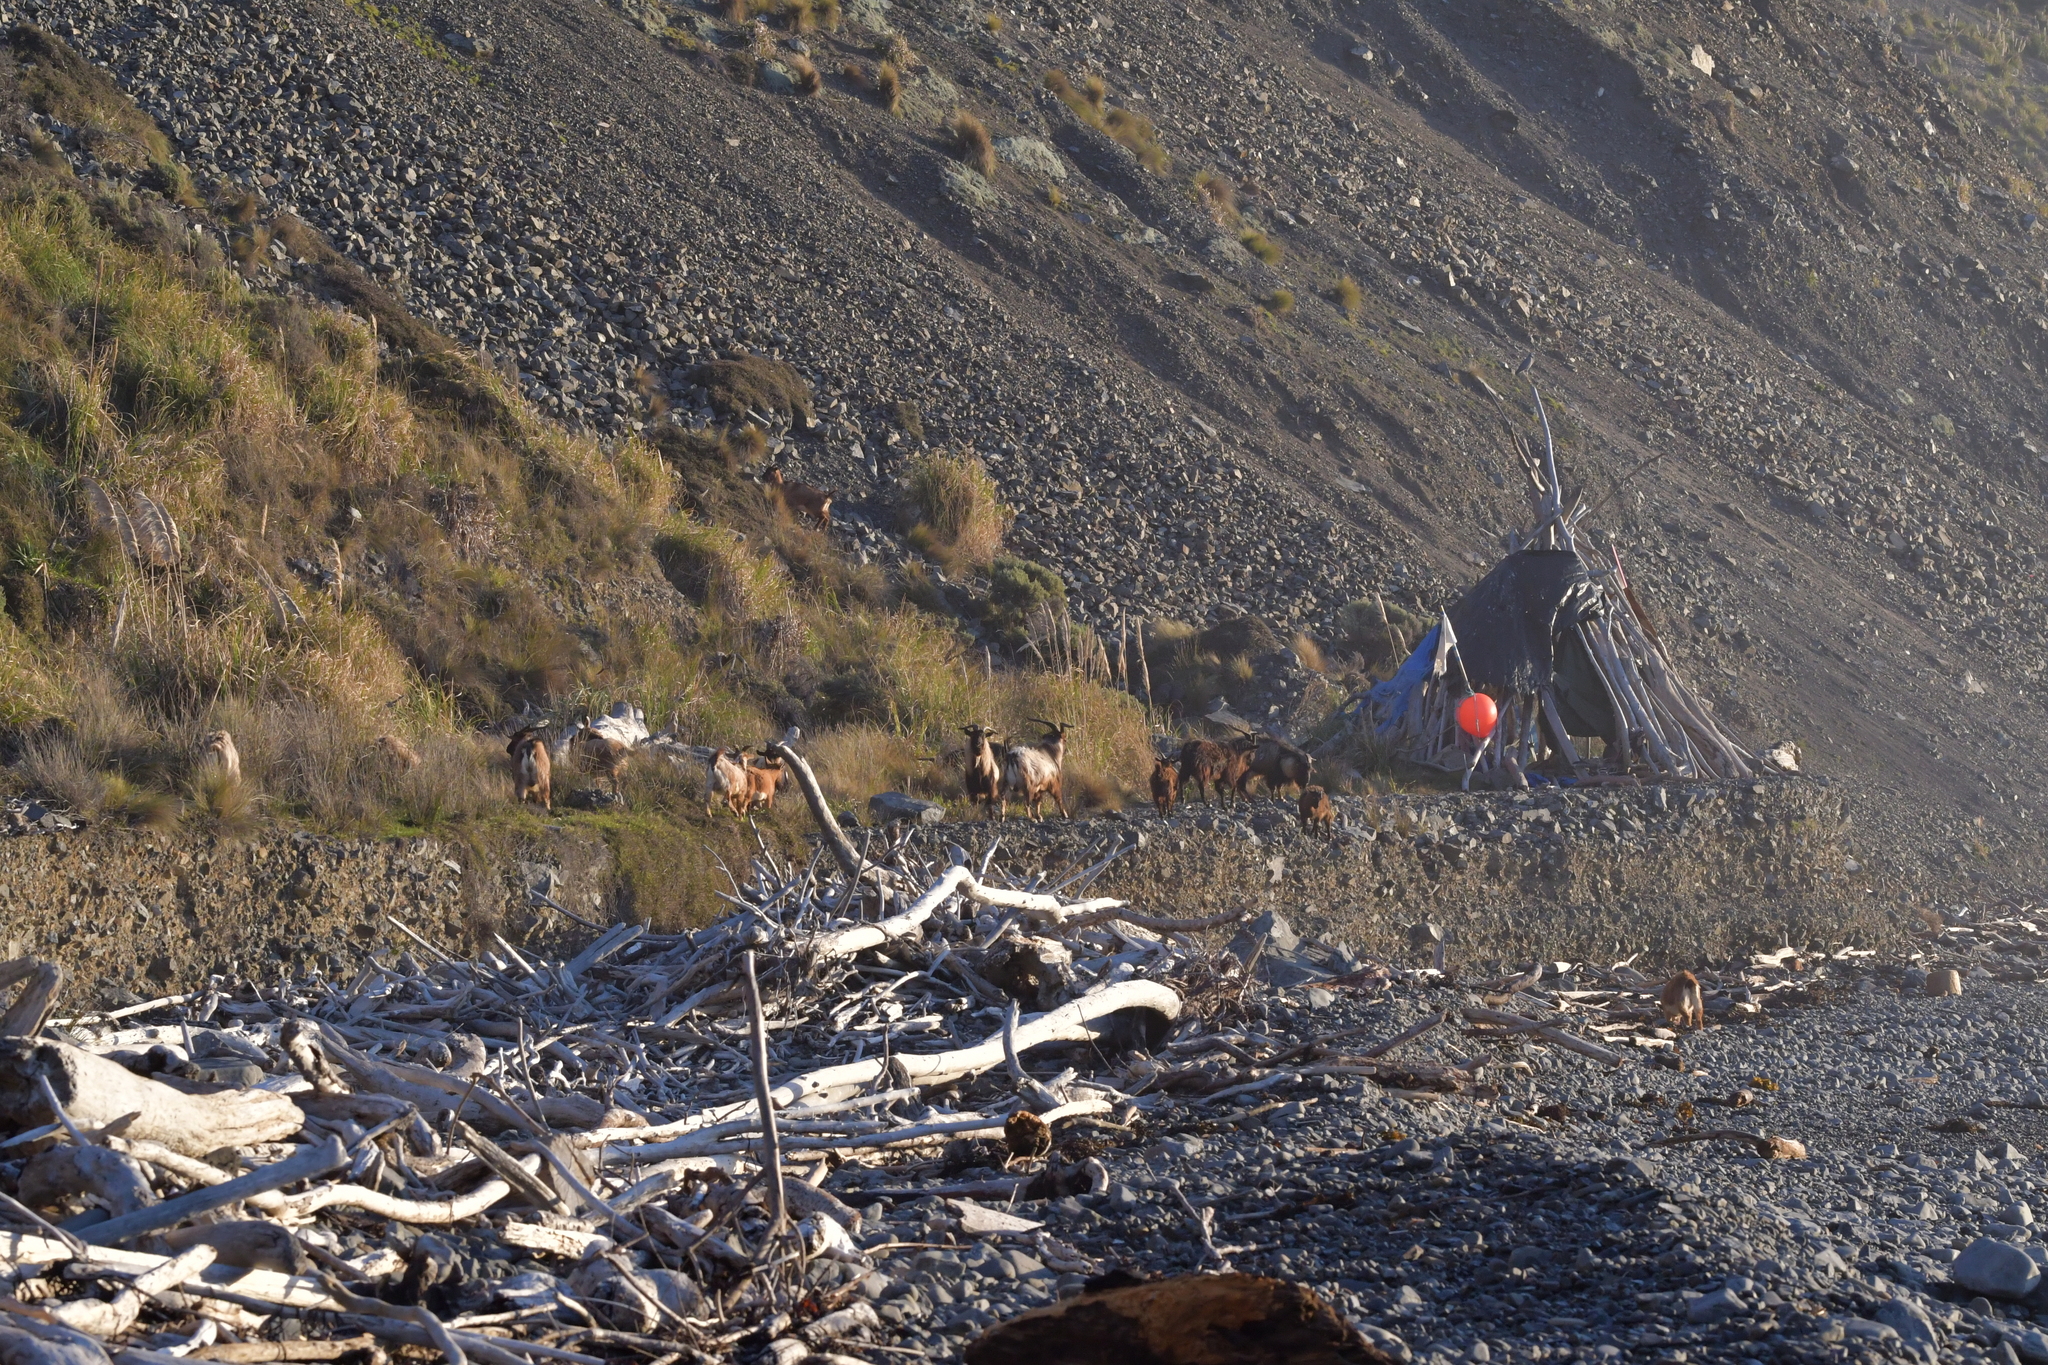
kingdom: Animalia
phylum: Chordata
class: Mammalia
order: Artiodactyla
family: Bovidae
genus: Capra
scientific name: Capra hircus
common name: Domestic goat
